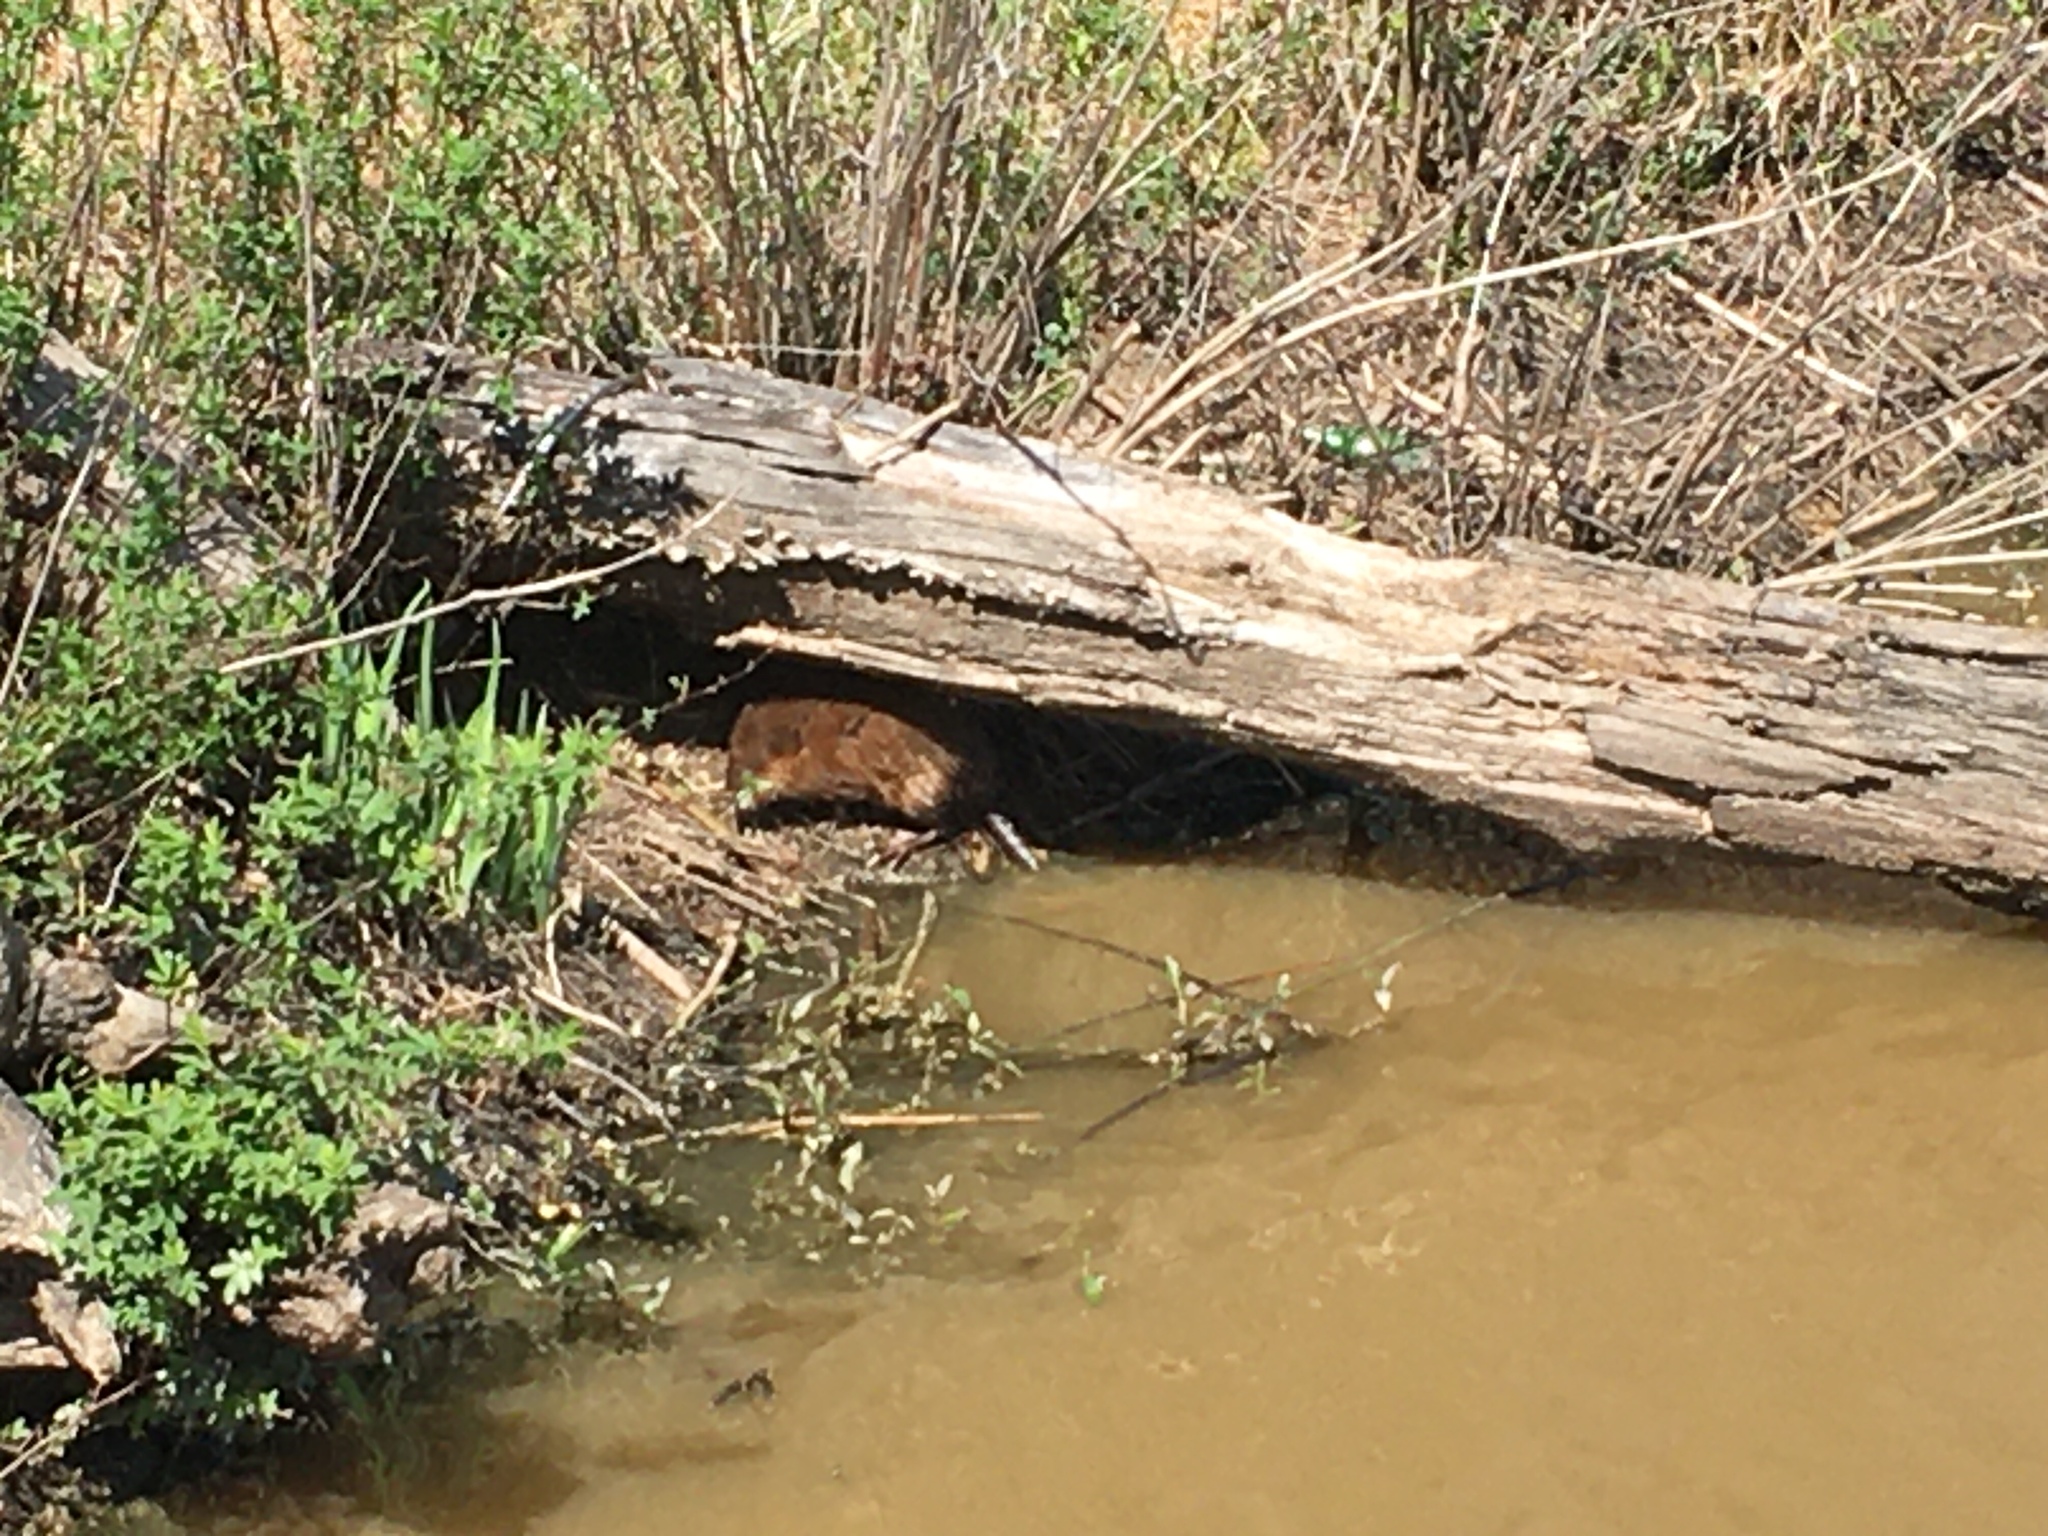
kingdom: Animalia
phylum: Chordata
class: Mammalia
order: Rodentia
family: Cricetidae
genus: Ondatra
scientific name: Ondatra zibethicus
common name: Muskrat
